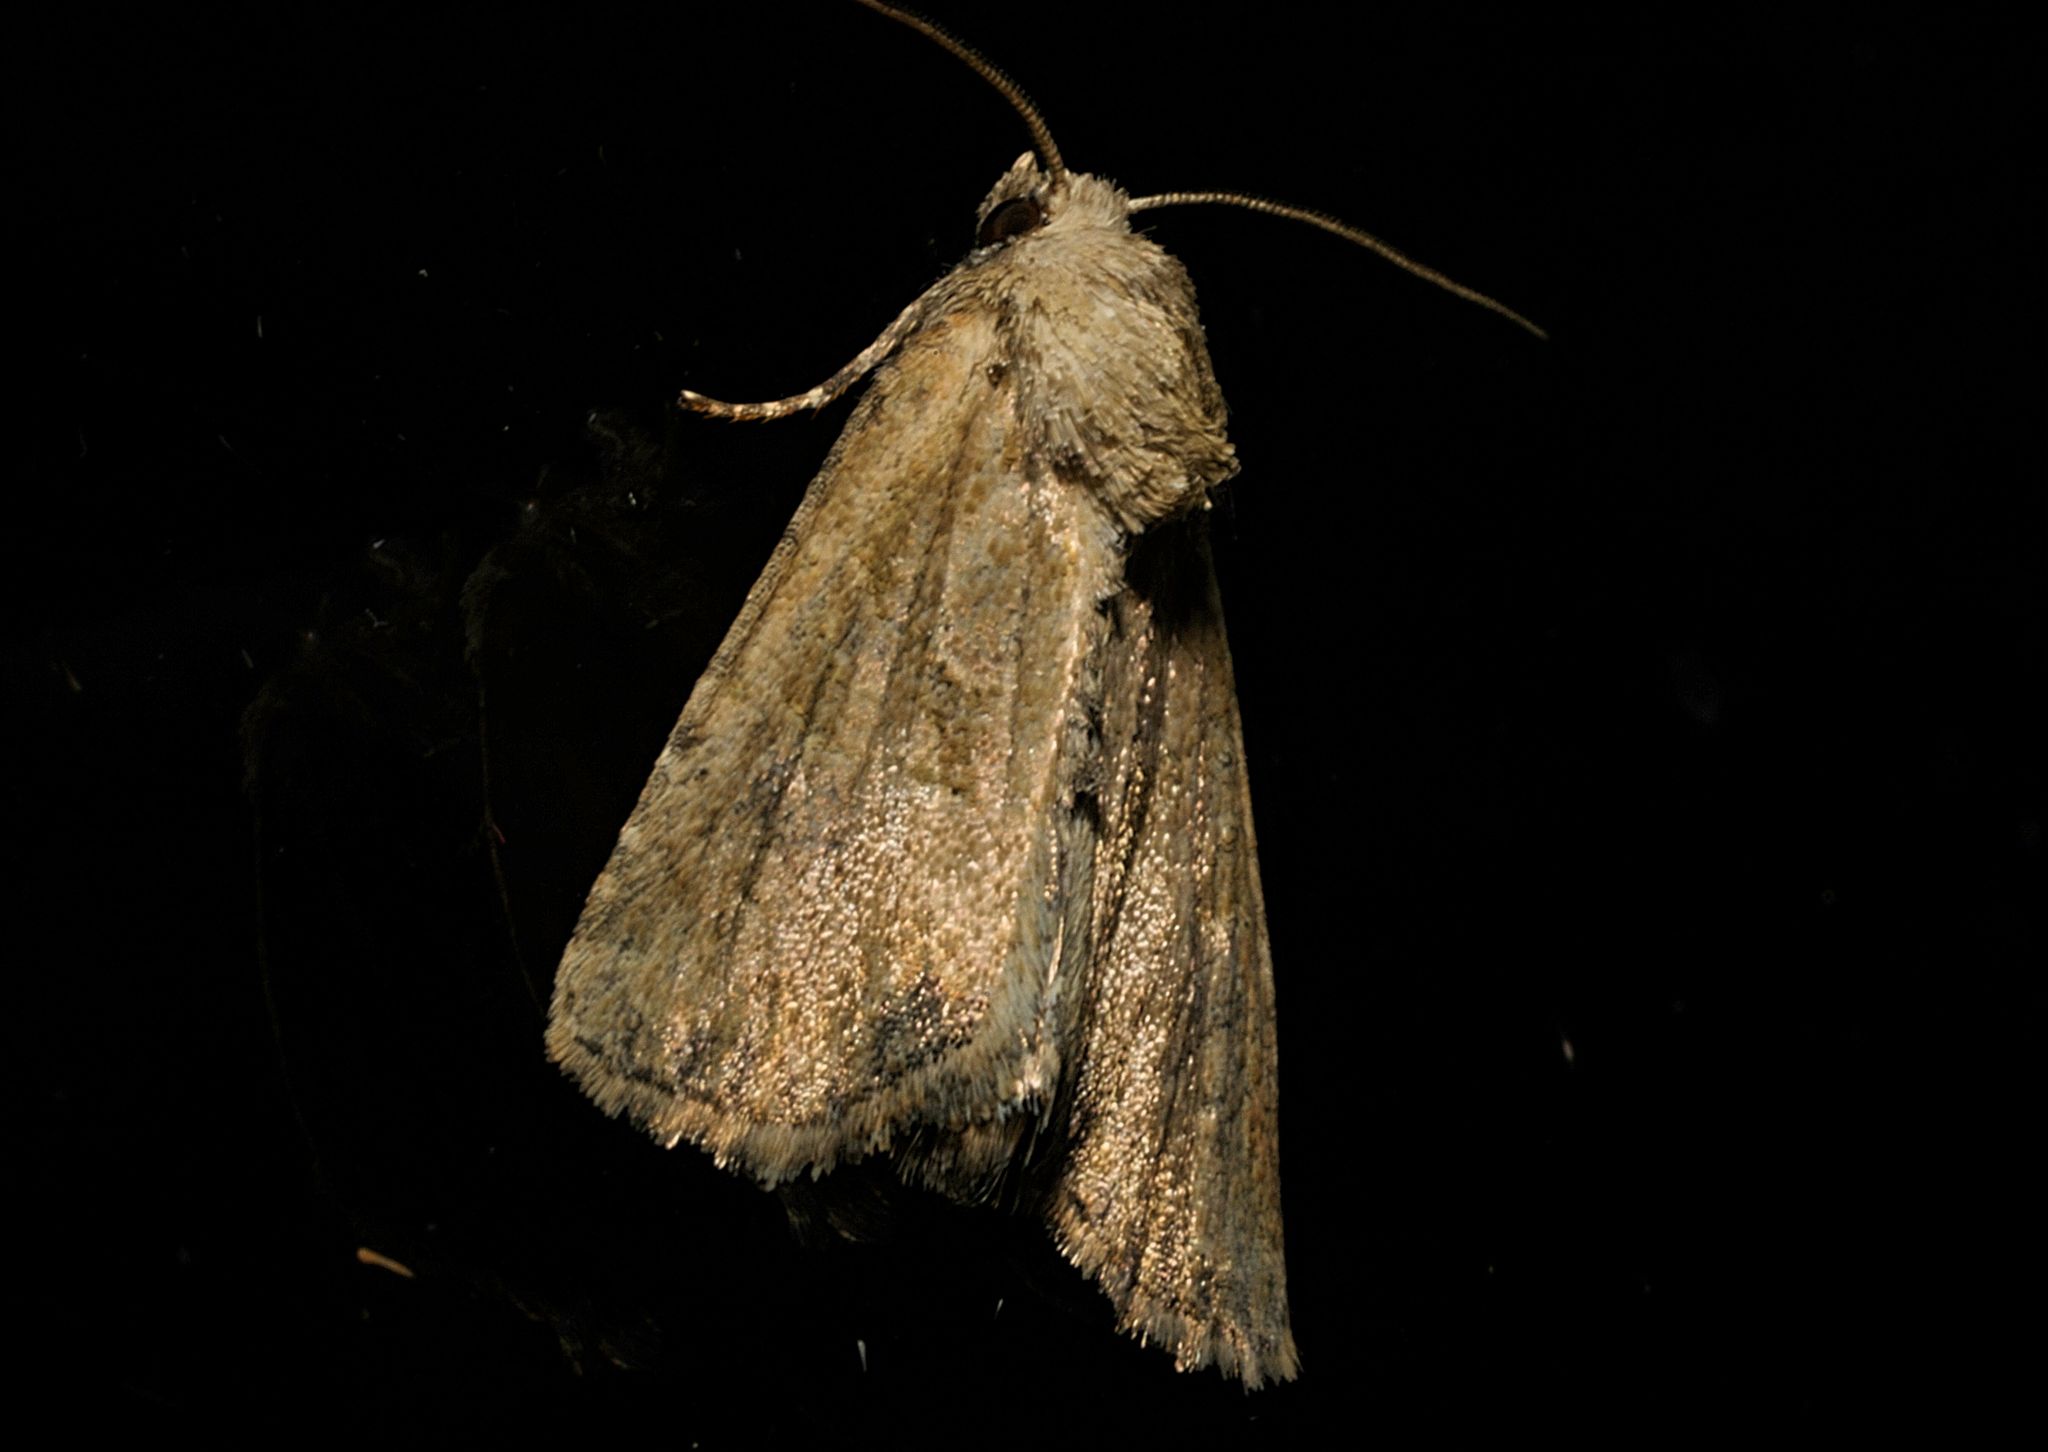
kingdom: Animalia
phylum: Arthropoda
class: Insecta
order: Lepidoptera
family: Noctuidae
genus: Mesoligia
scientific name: Mesoligia furuncula
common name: Cloaked minor
